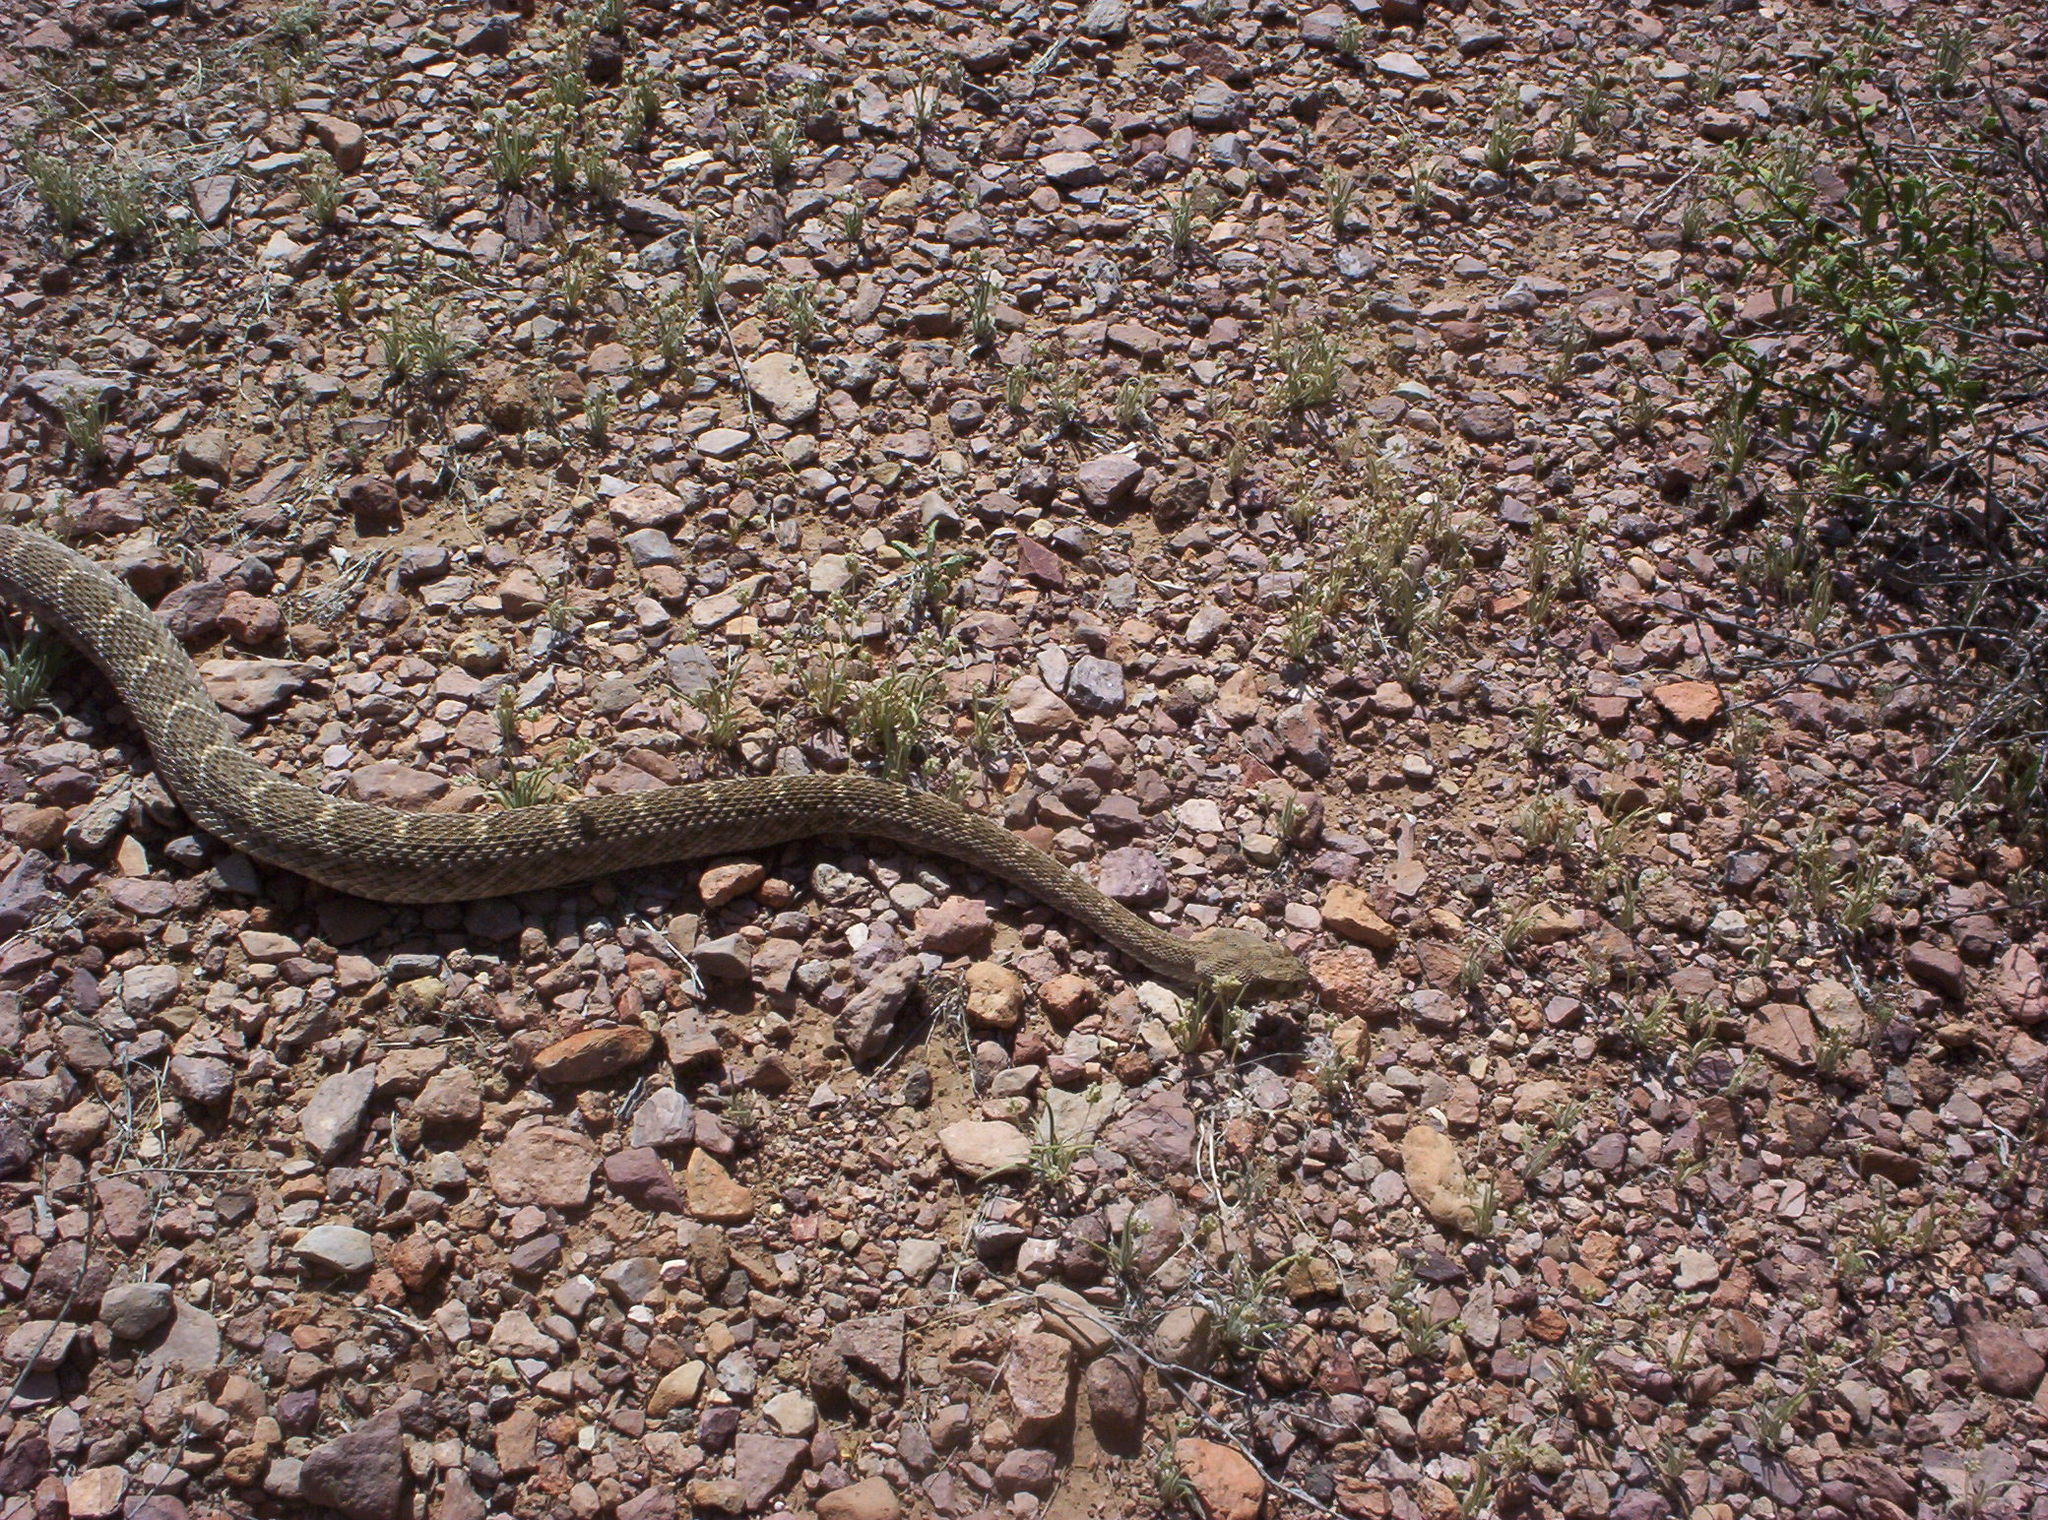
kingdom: Animalia
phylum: Chordata
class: Squamata
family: Viperidae
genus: Crotalus
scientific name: Crotalus atrox
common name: Western diamond-backed rattlesnake
